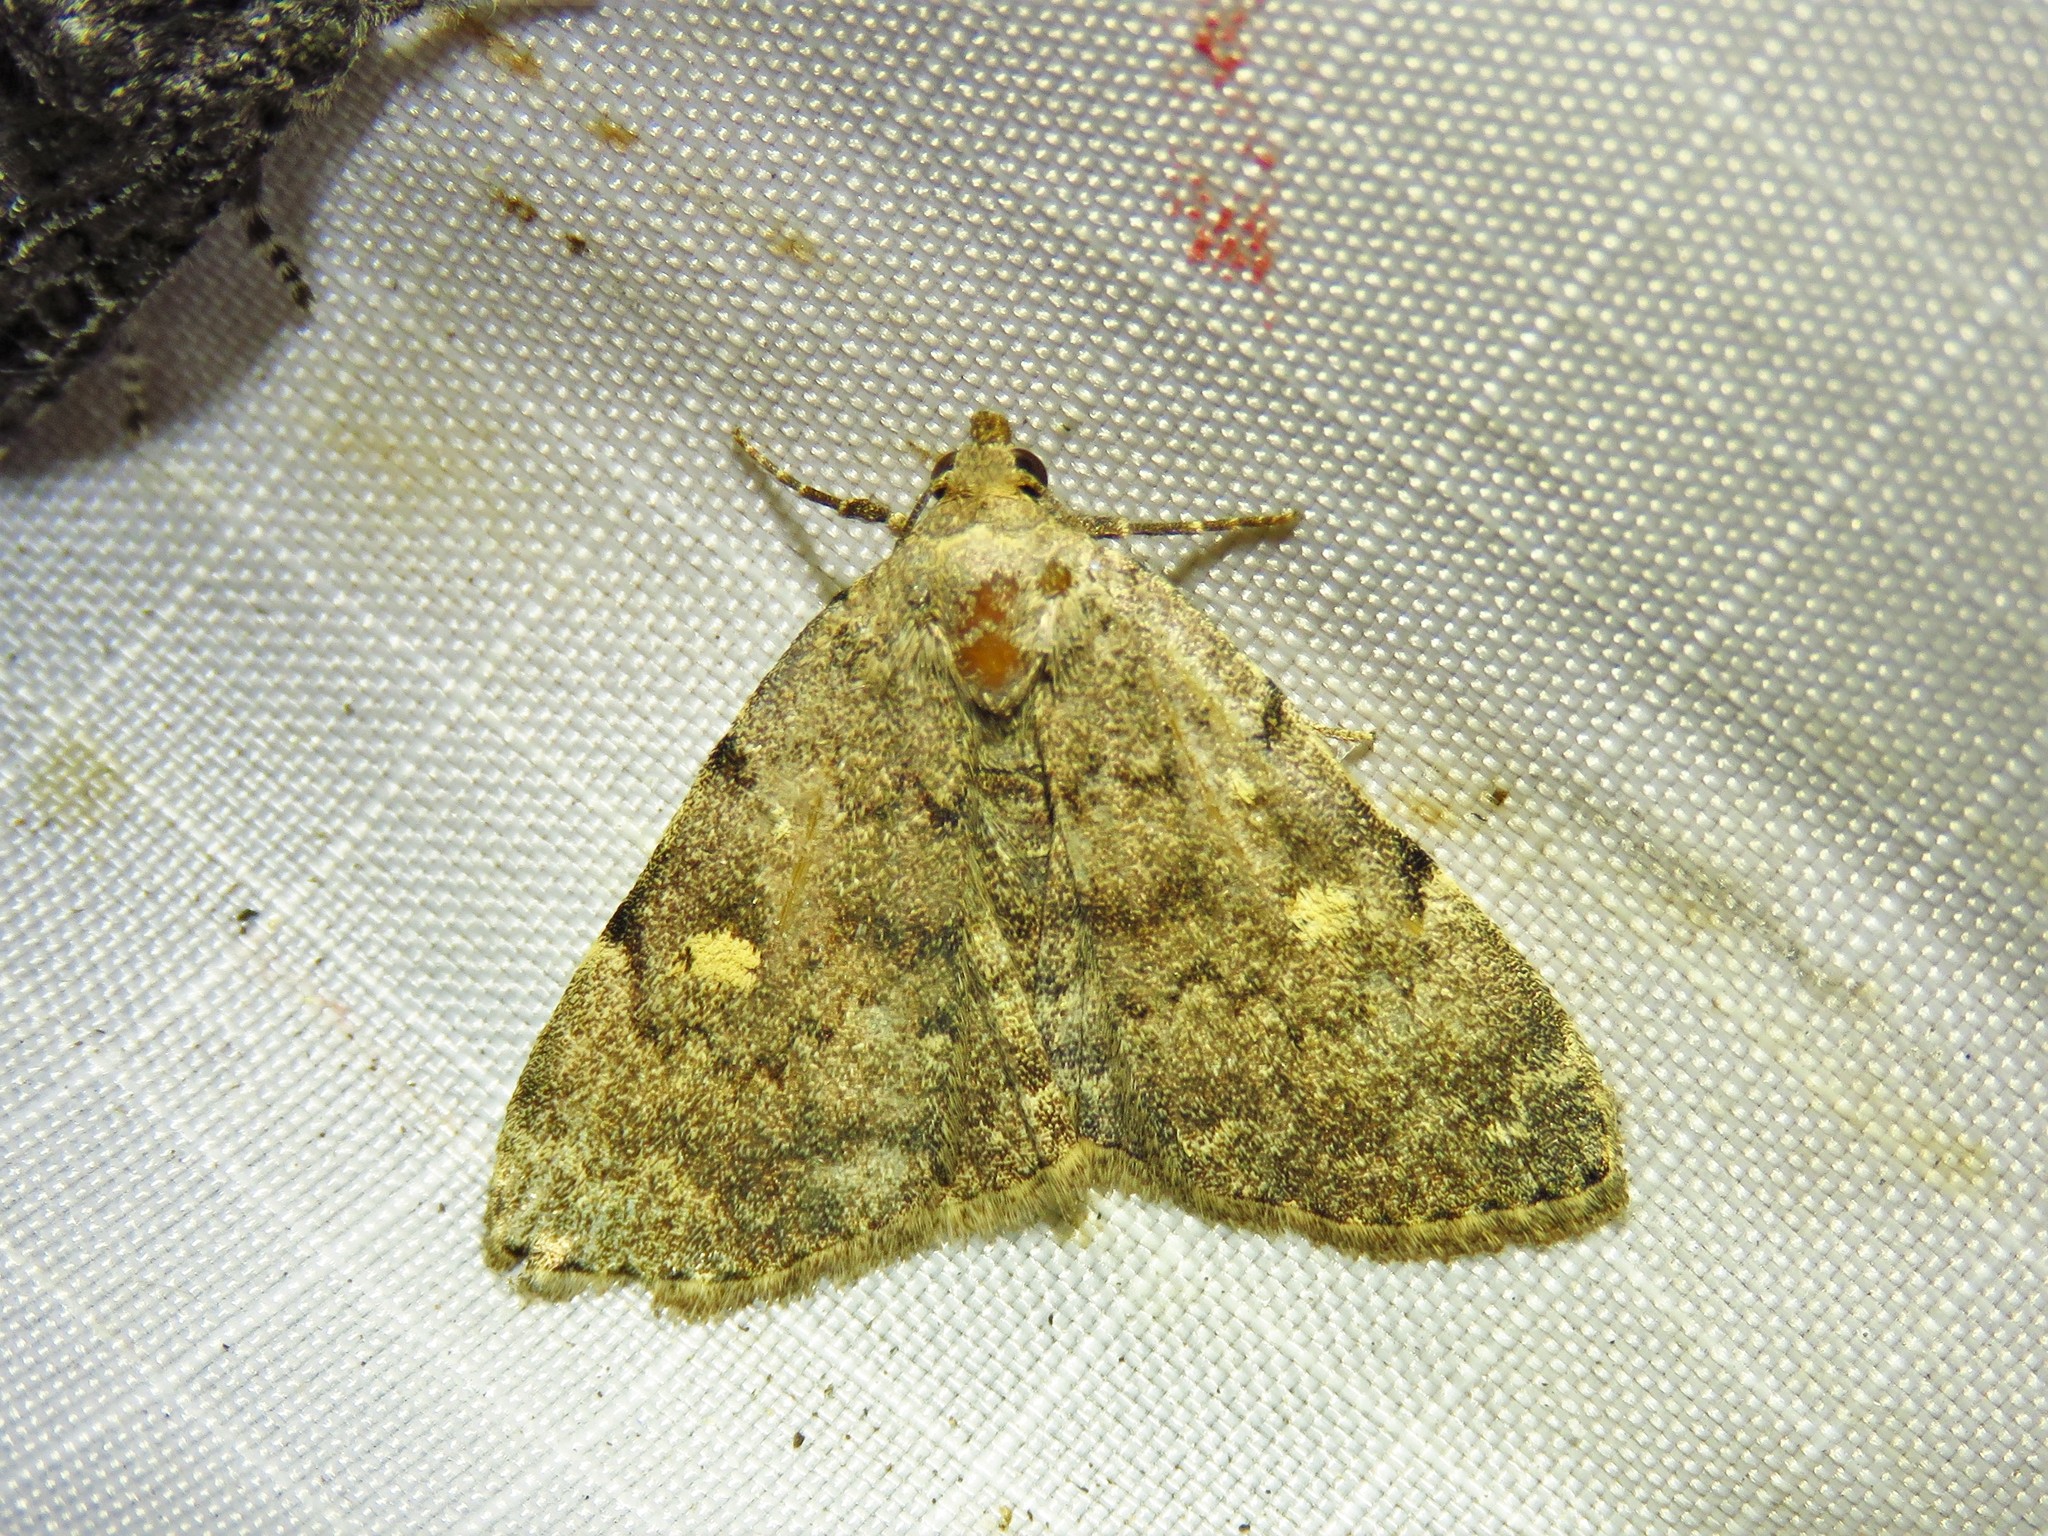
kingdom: Animalia
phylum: Arthropoda
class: Insecta
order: Lepidoptera
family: Erebidae
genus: Idia
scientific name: Idia aemula
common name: Common idia moth
